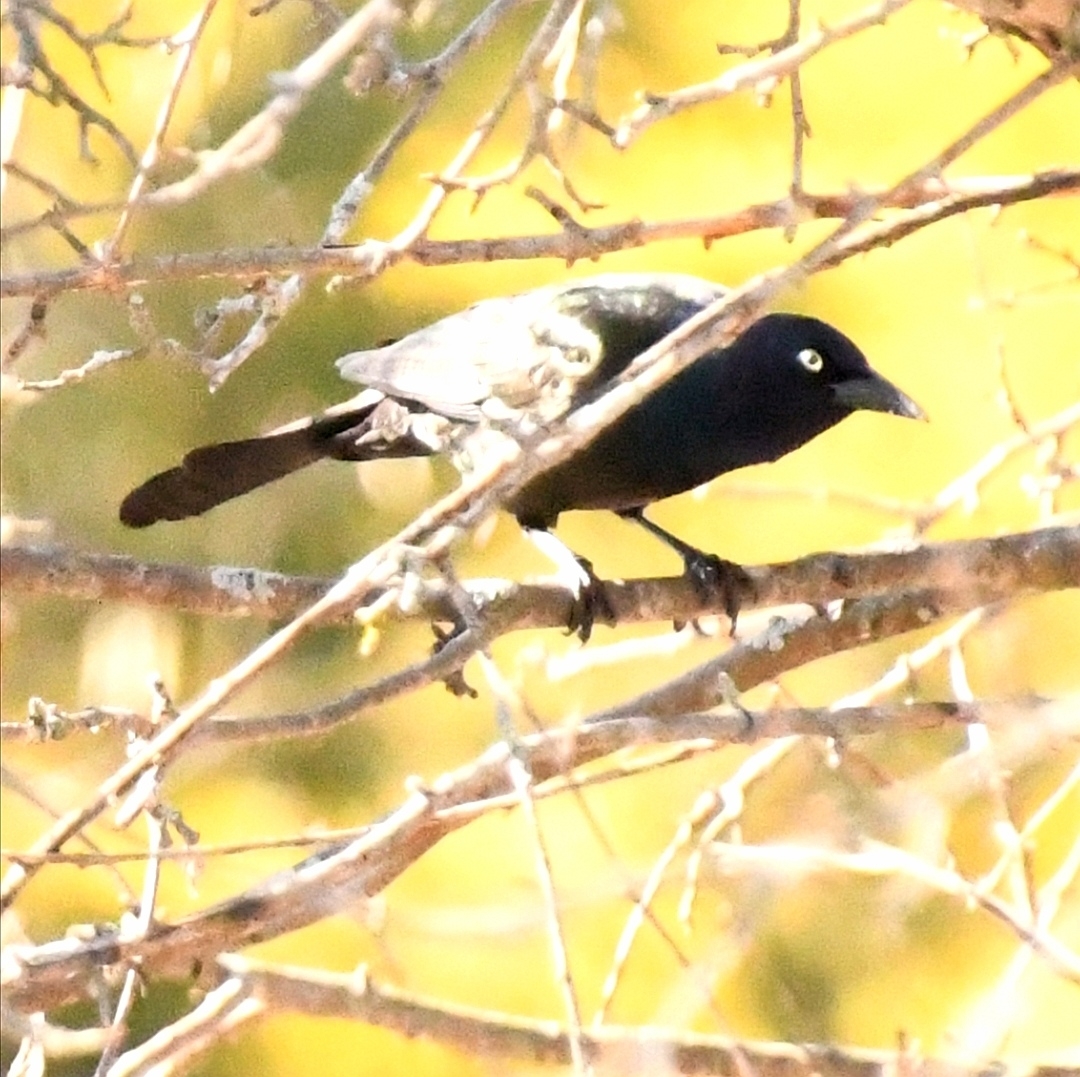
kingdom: Animalia
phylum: Chordata
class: Aves
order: Passeriformes
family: Icteridae
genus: Quiscalus
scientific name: Quiscalus quiscula
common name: Common grackle
